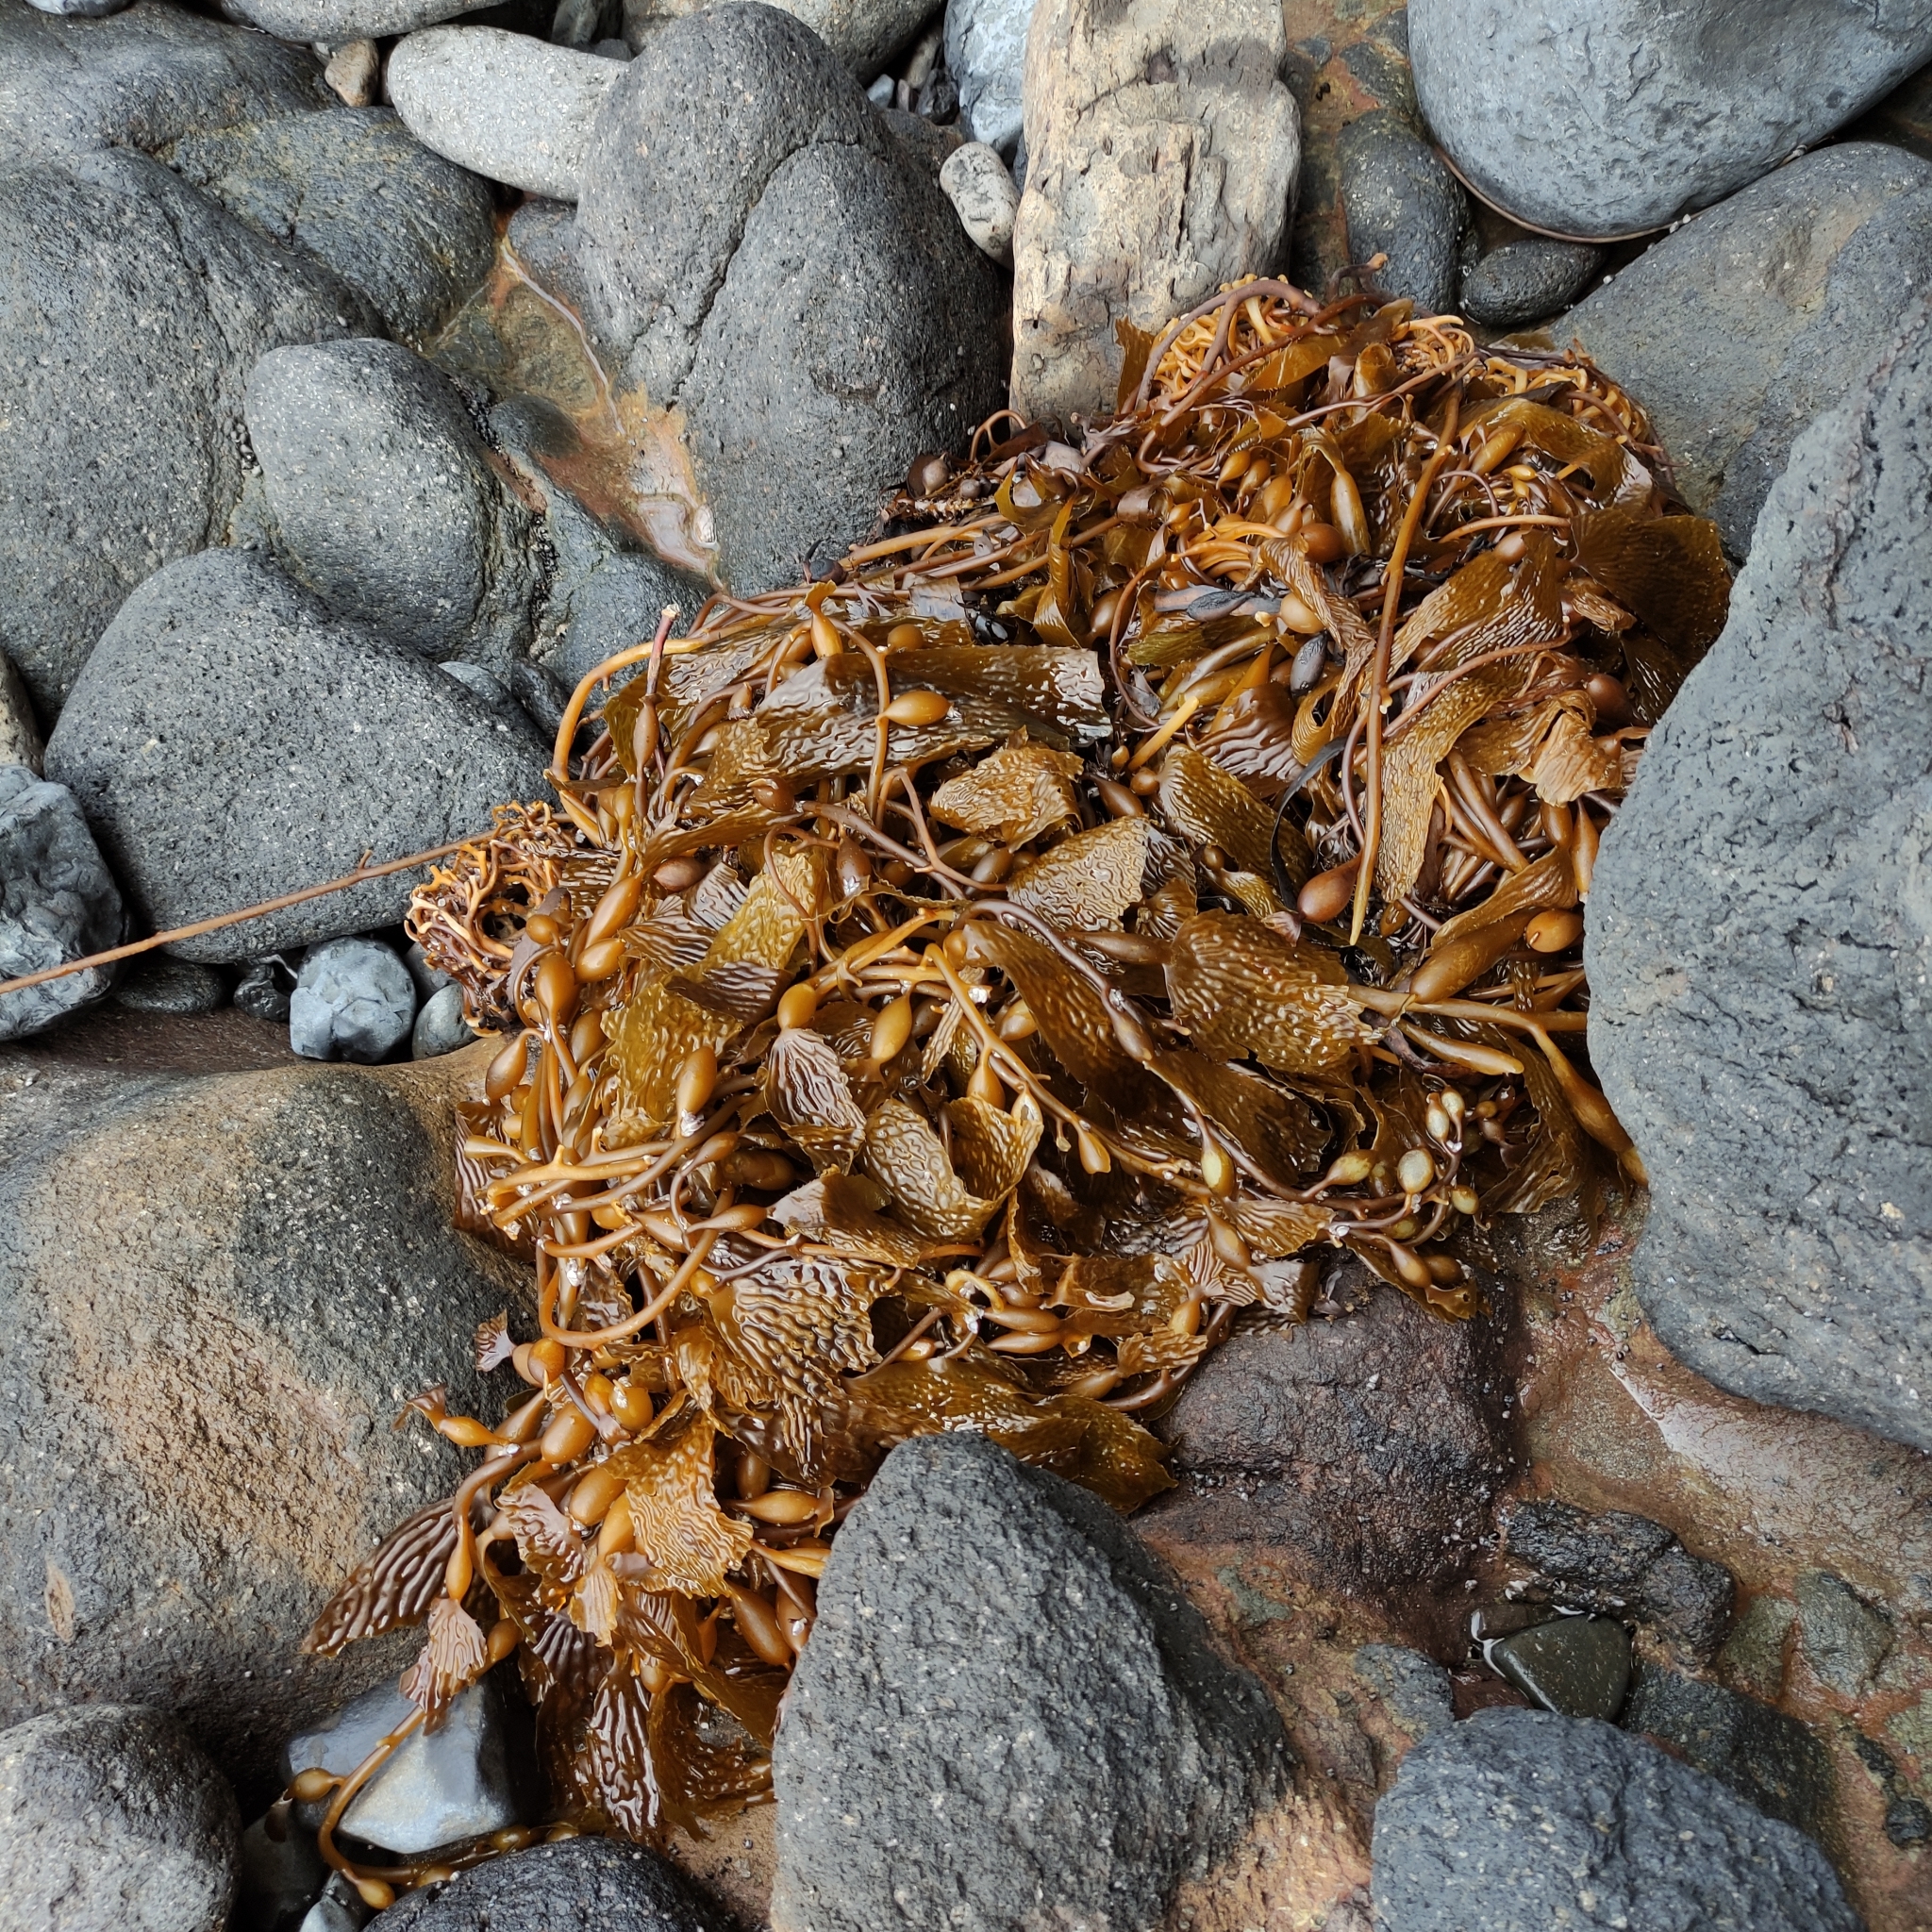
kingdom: Chromista
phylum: Ochrophyta
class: Phaeophyceae
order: Laminariales
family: Laminariaceae
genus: Macrocystis
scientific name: Macrocystis pyrifera
